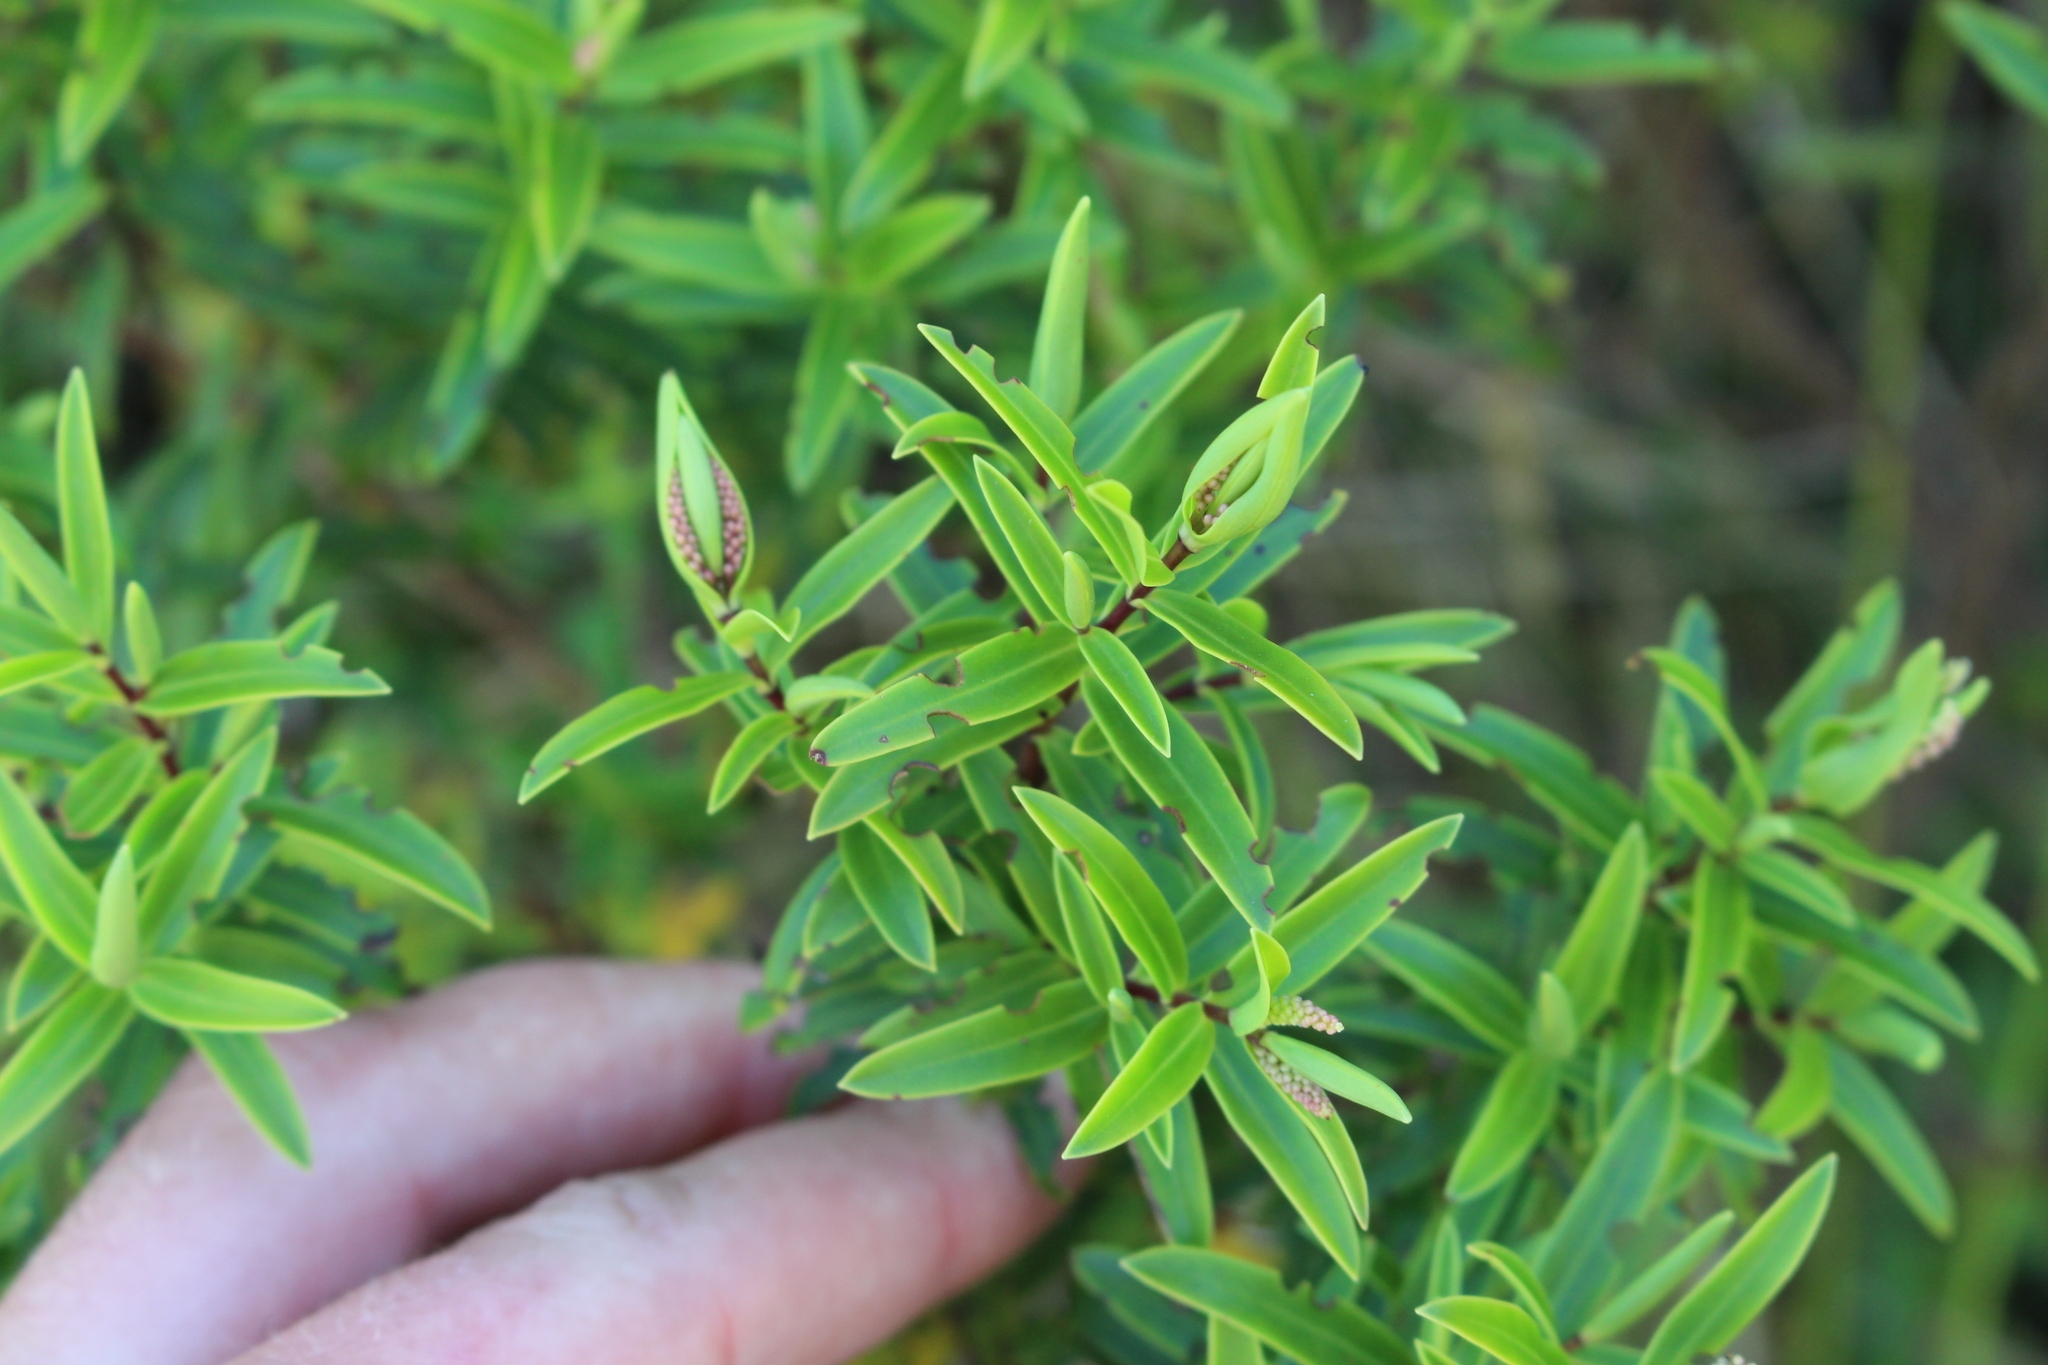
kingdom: Plantae
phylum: Tracheophyta
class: Magnoliopsida
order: Lamiales
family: Plantaginaceae
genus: Veronica
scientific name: Veronica strictissima
